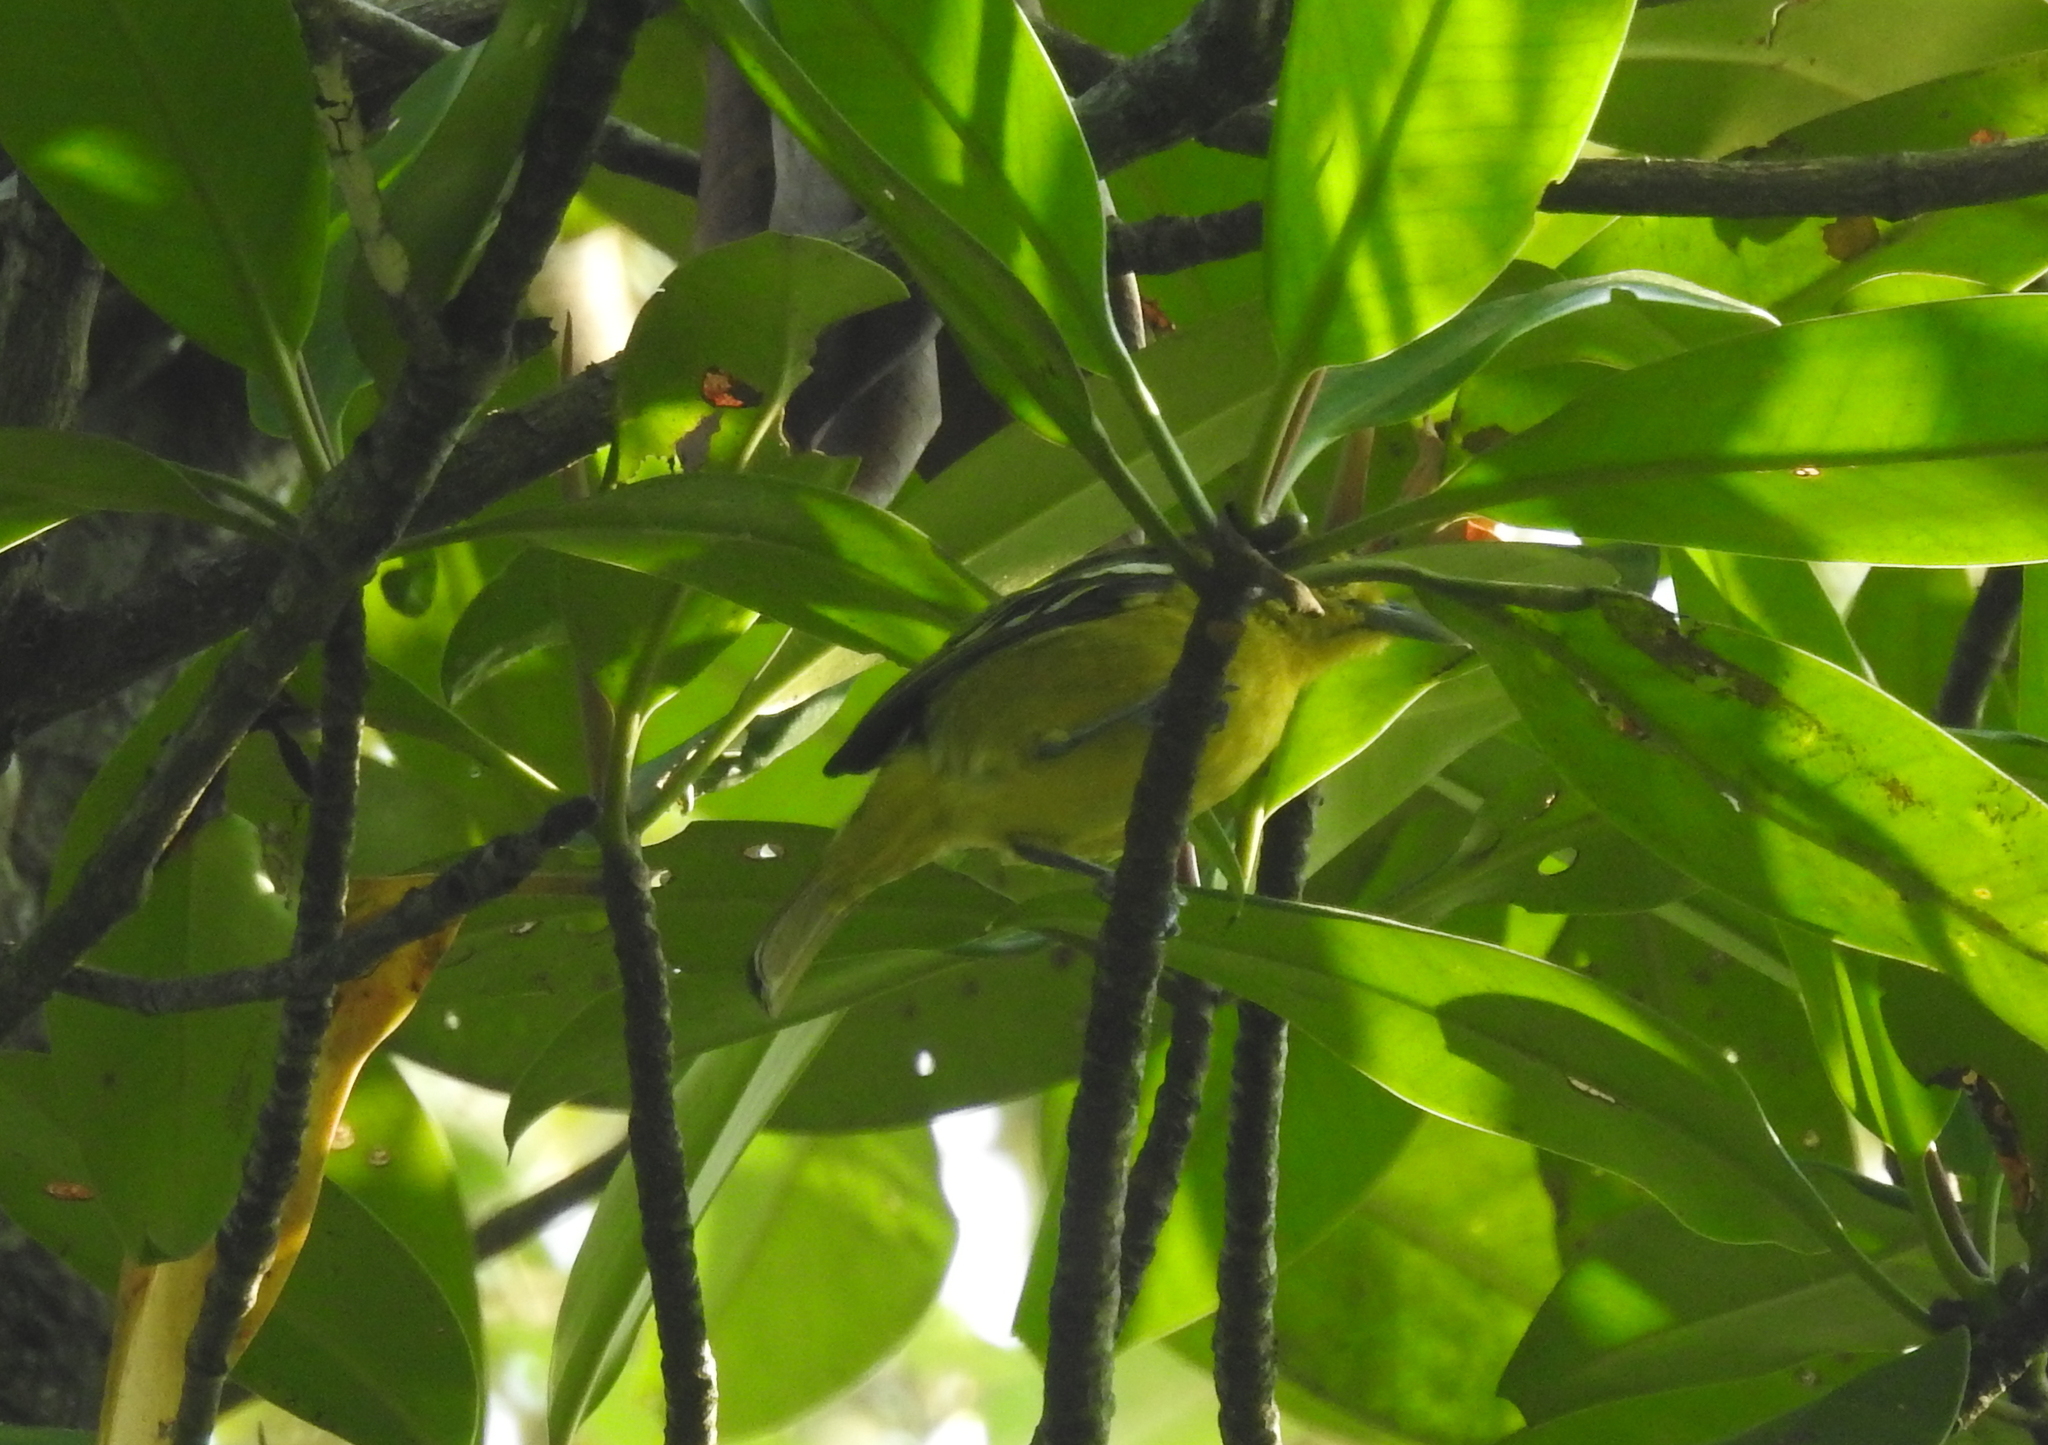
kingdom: Animalia
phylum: Chordata
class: Aves
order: Passeriformes
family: Aegithinidae
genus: Aegithina
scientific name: Aegithina tiphia
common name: Common iora
